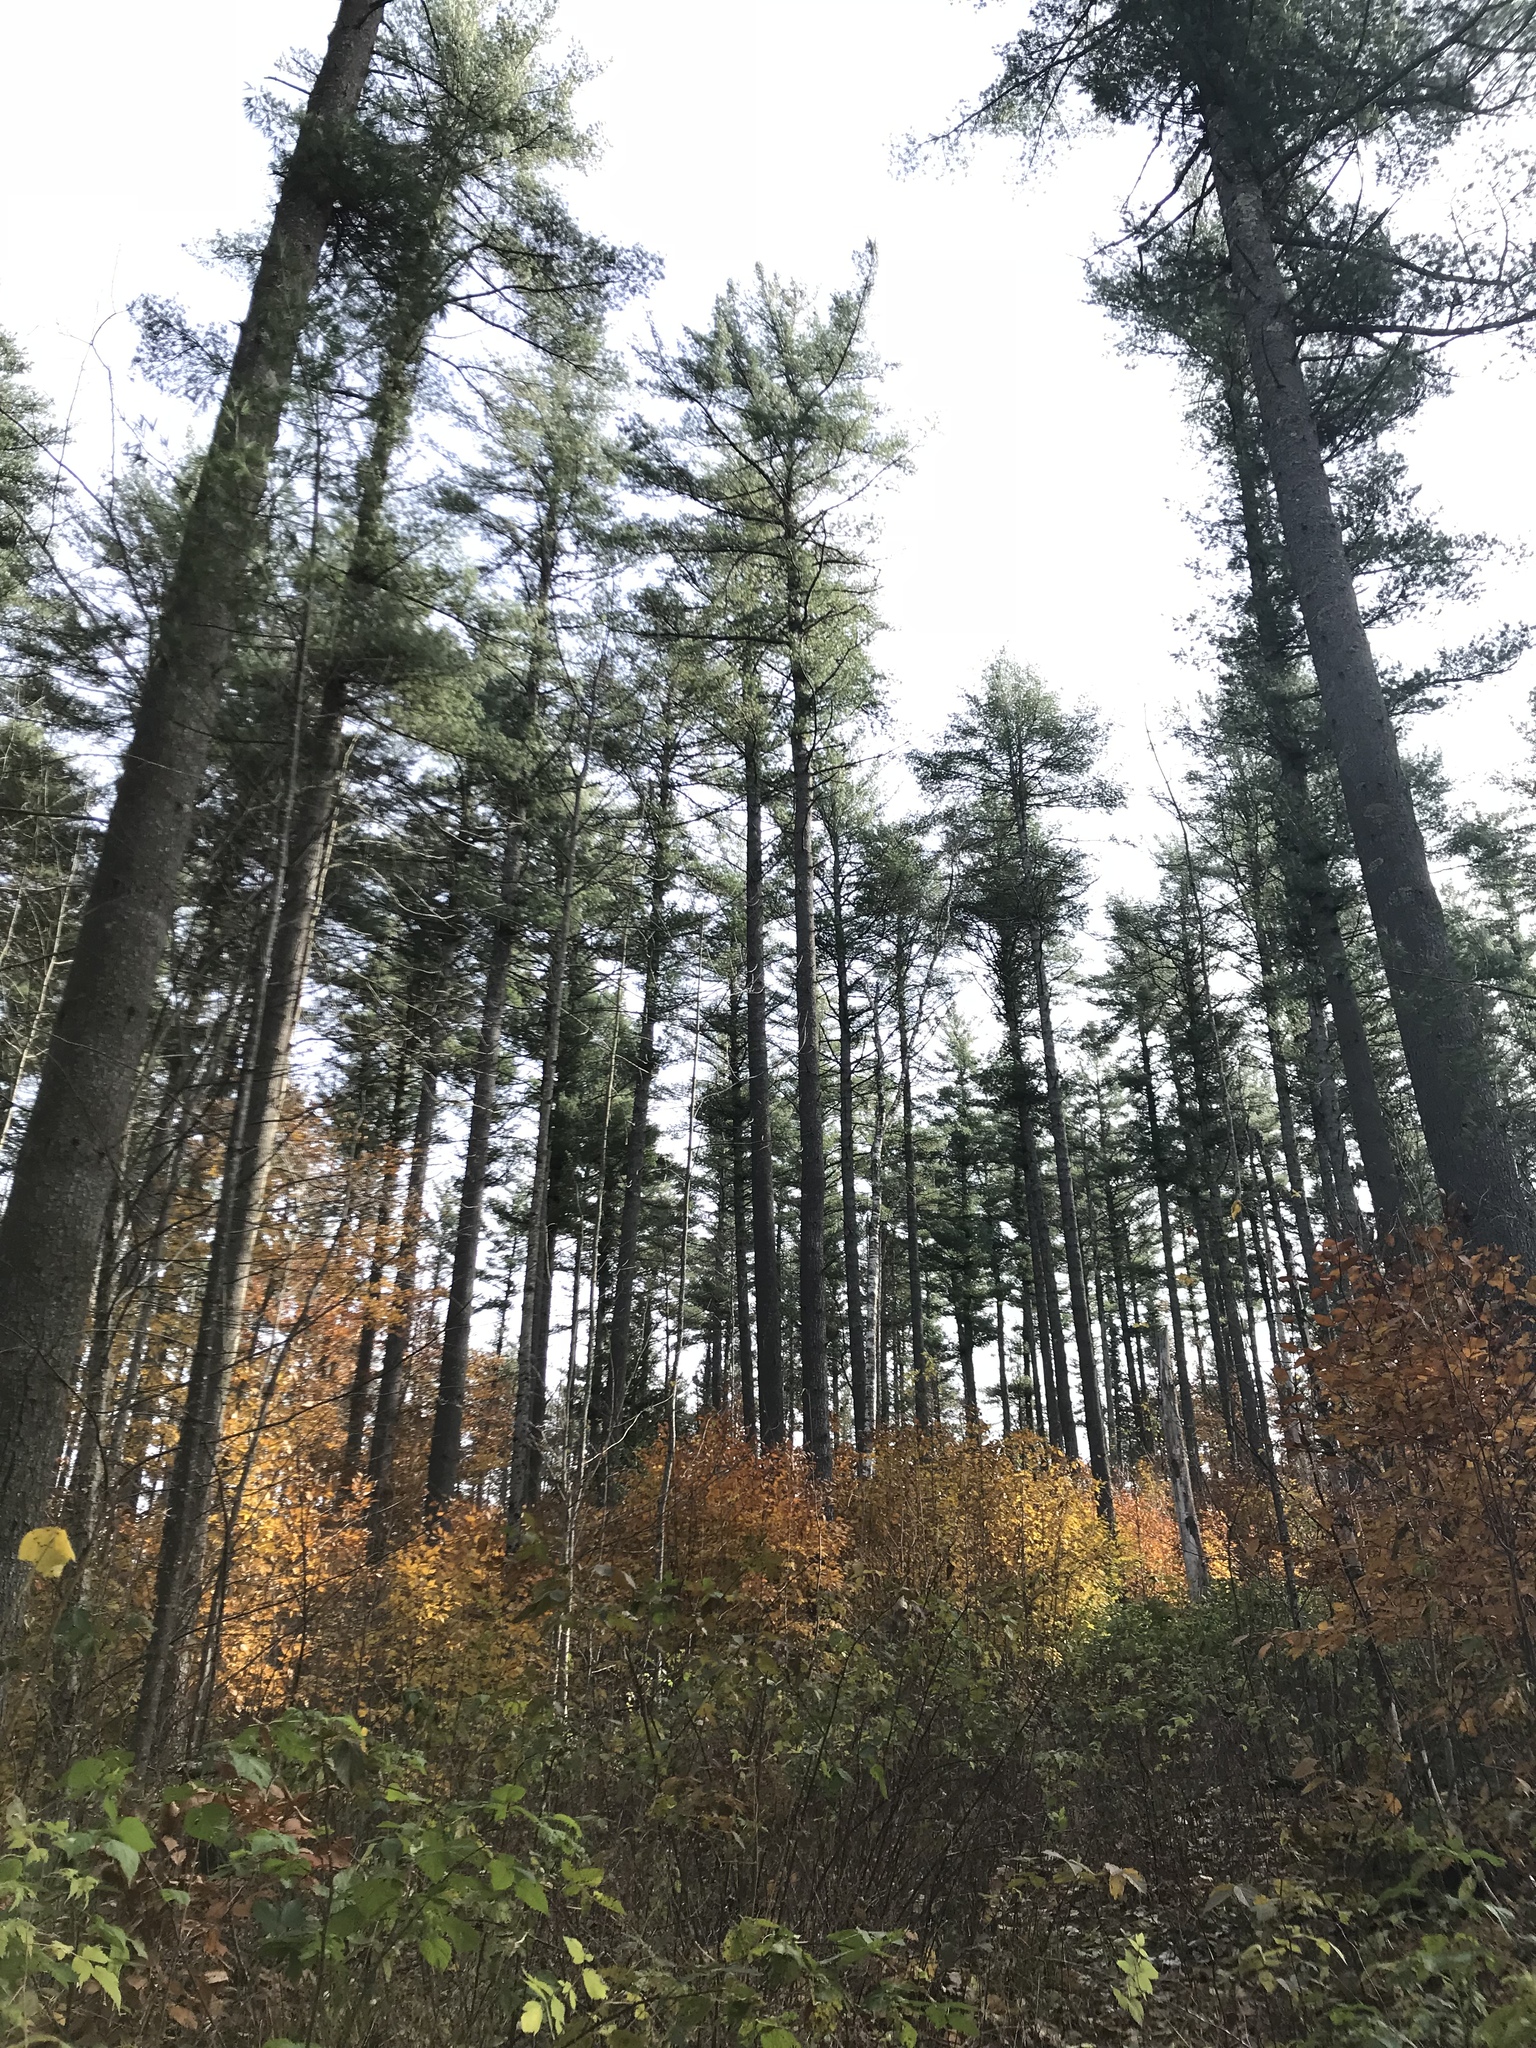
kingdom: Plantae
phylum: Tracheophyta
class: Magnoliopsida
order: Fagales
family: Fagaceae
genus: Fagus
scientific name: Fagus grandifolia
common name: American beech
